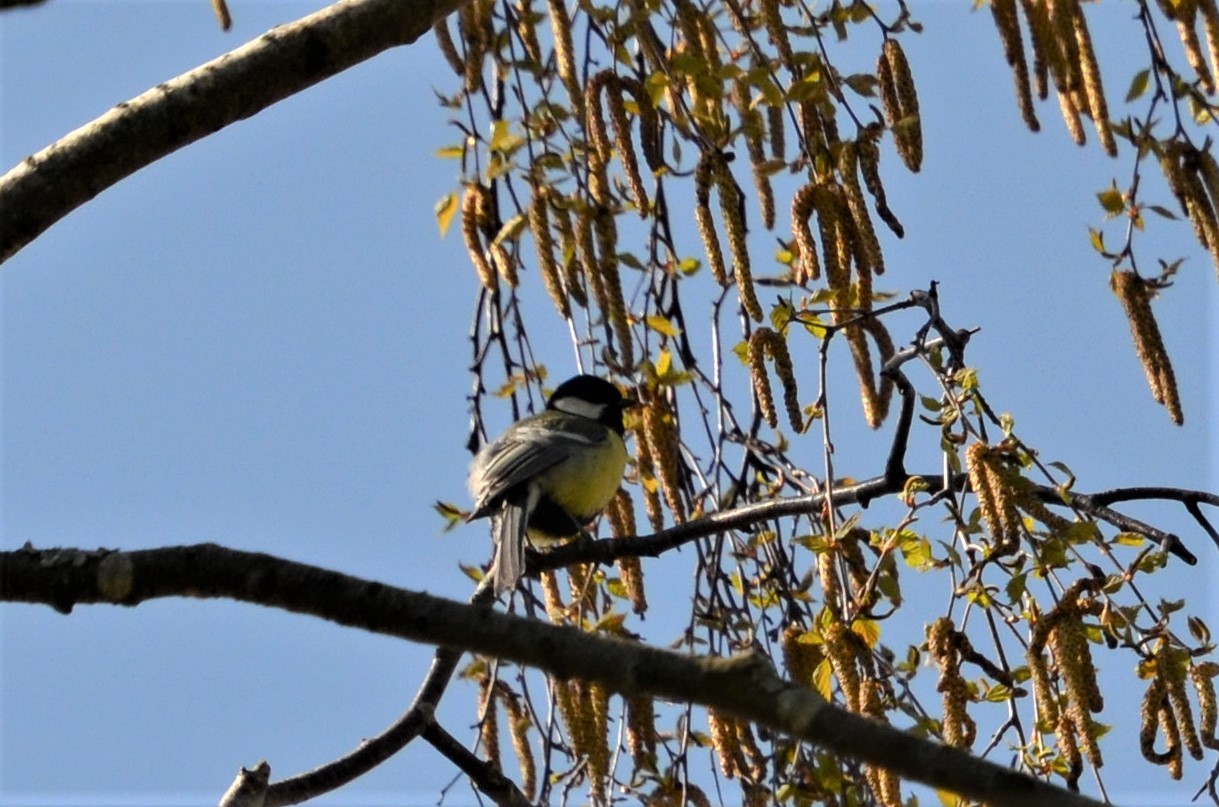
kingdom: Animalia
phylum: Chordata
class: Aves
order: Passeriformes
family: Paridae
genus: Parus
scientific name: Parus major
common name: Great tit
